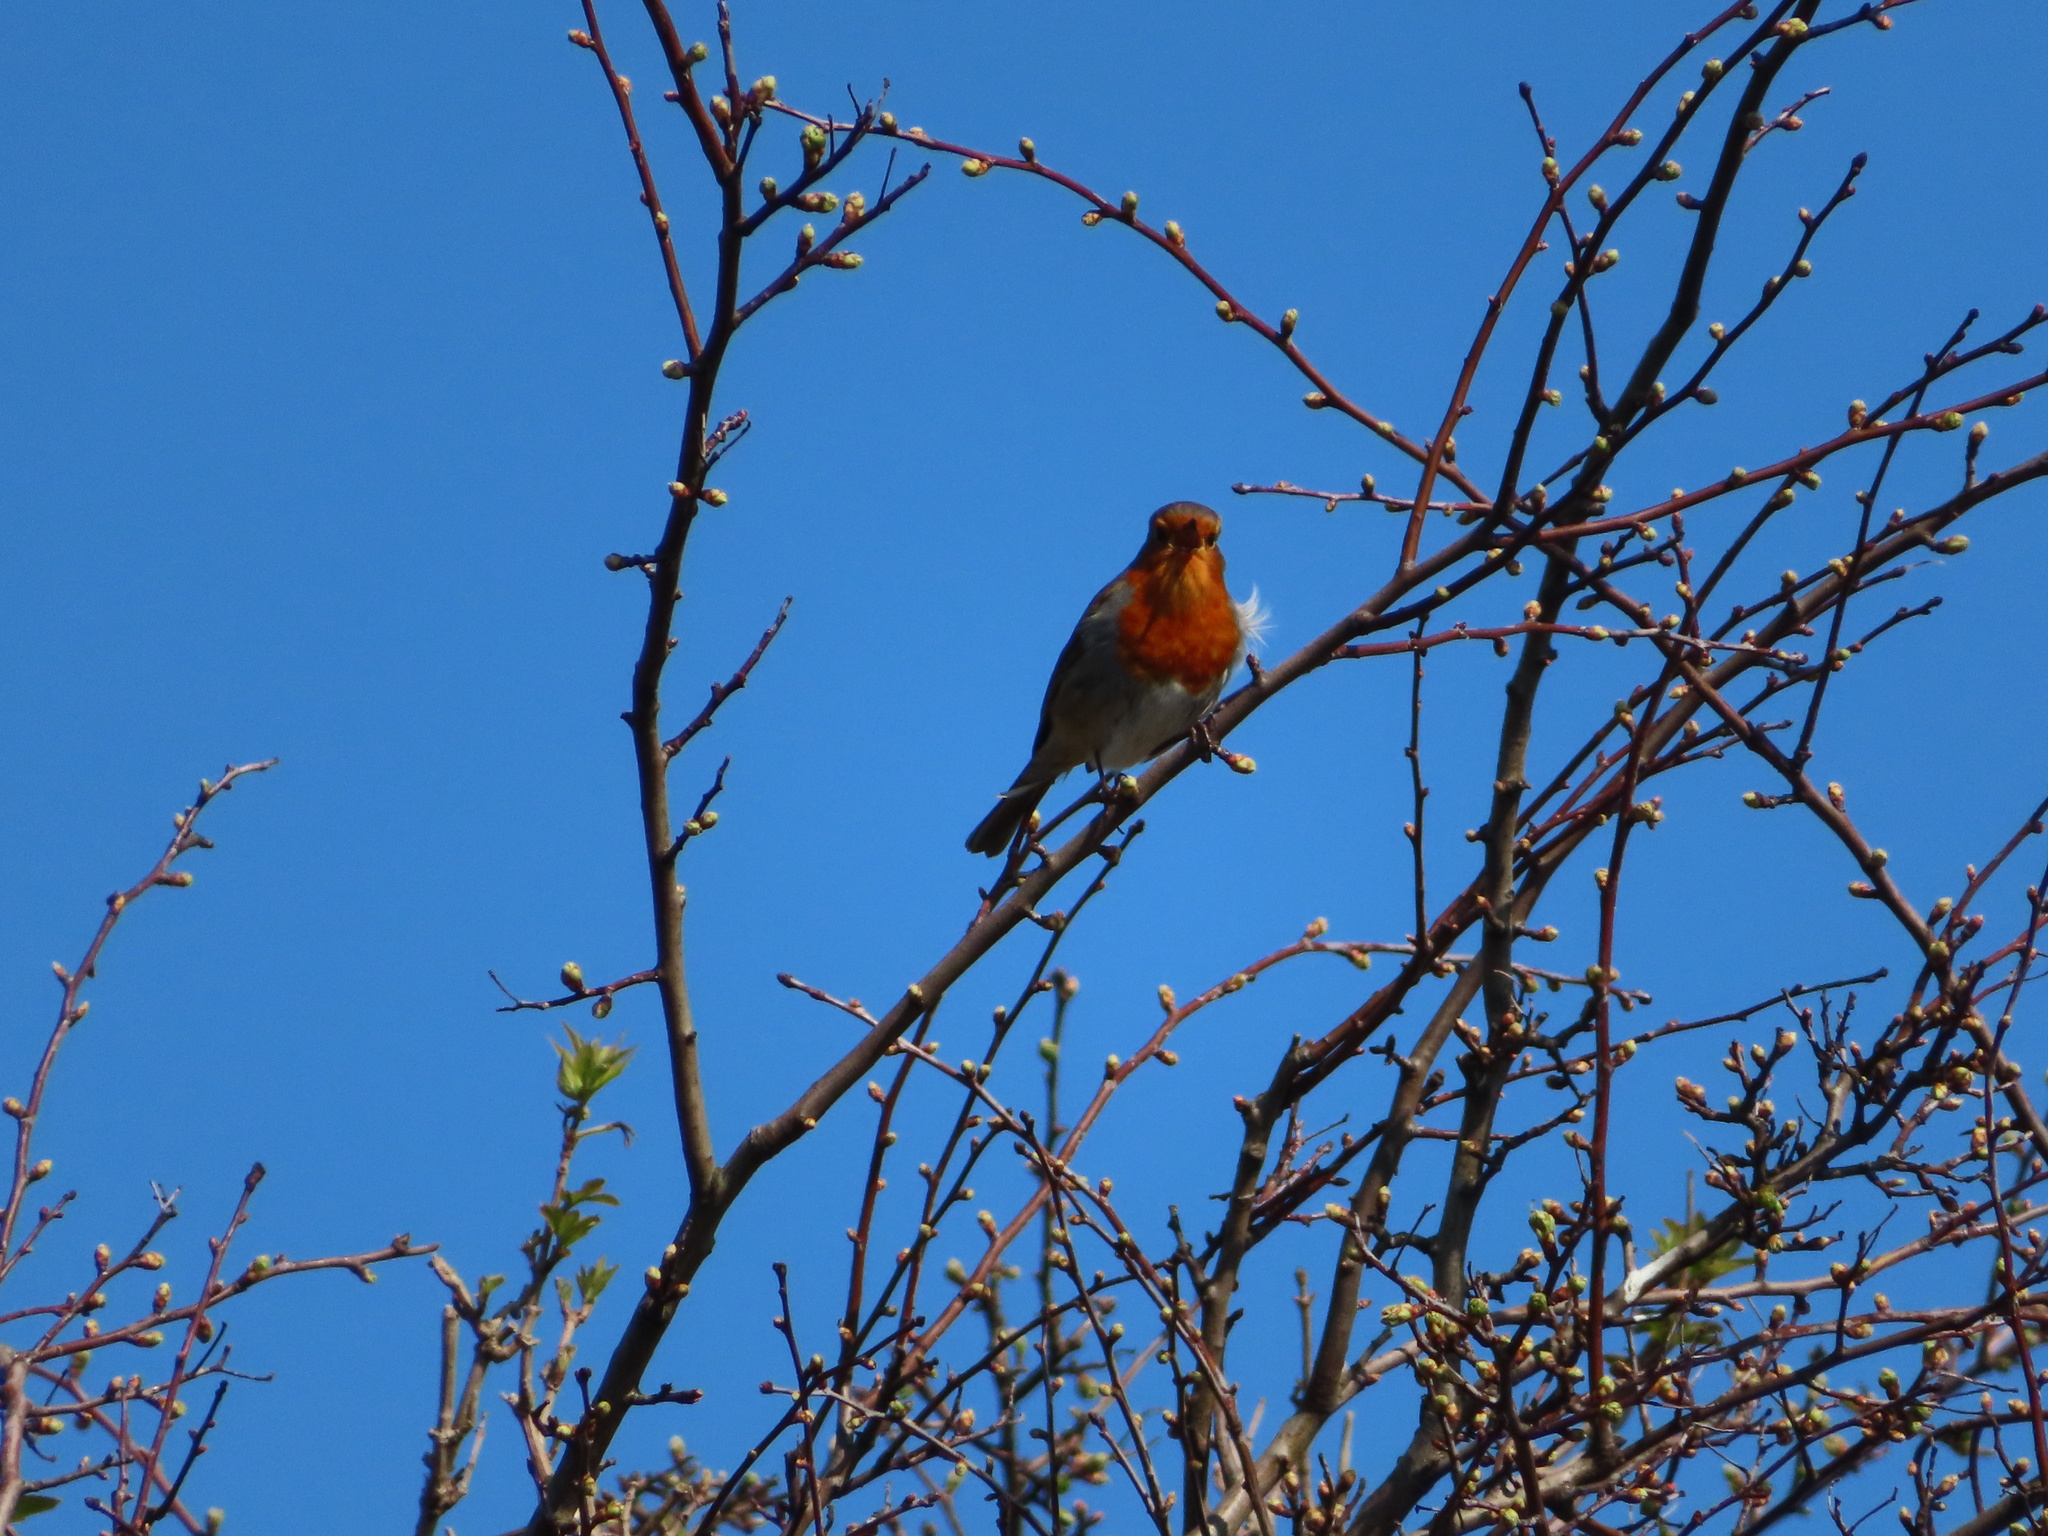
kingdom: Animalia
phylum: Chordata
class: Aves
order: Passeriformes
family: Muscicapidae
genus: Erithacus
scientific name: Erithacus rubecula
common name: European robin
